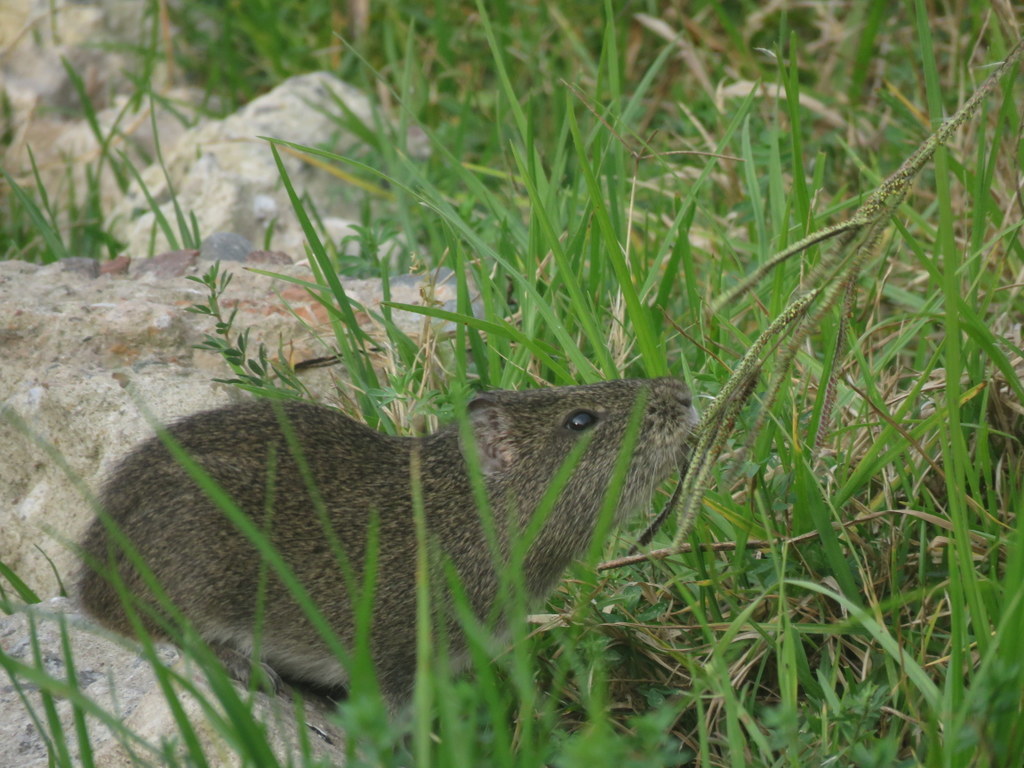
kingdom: Animalia
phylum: Chordata
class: Mammalia
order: Rodentia
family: Caviidae
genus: Cavia
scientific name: Cavia aperea
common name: Brazilian guinea pig
